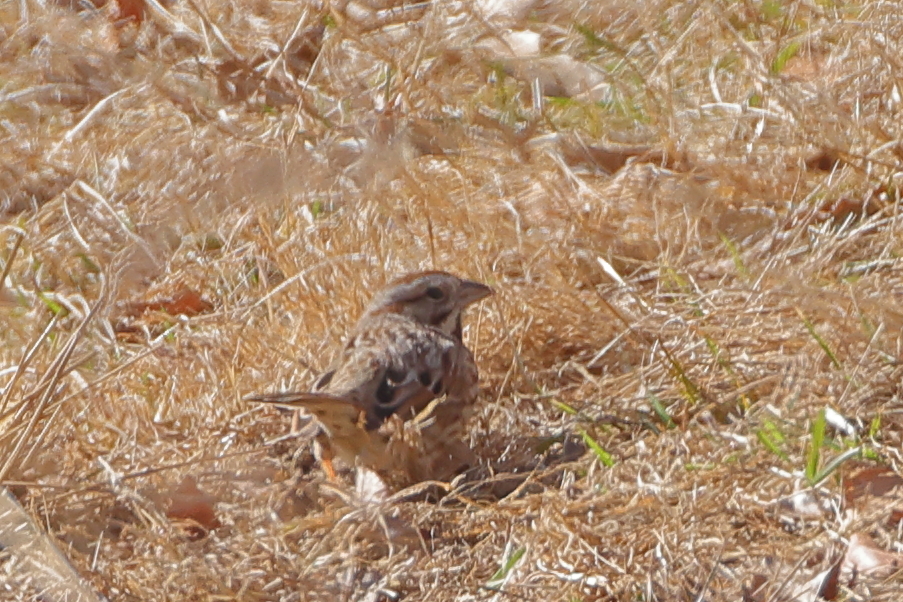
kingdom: Animalia
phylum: Chordata
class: Aves
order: Passeriformes
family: Passerellidae
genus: Melospiza
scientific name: Melospiza melodia
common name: Song sparrow
